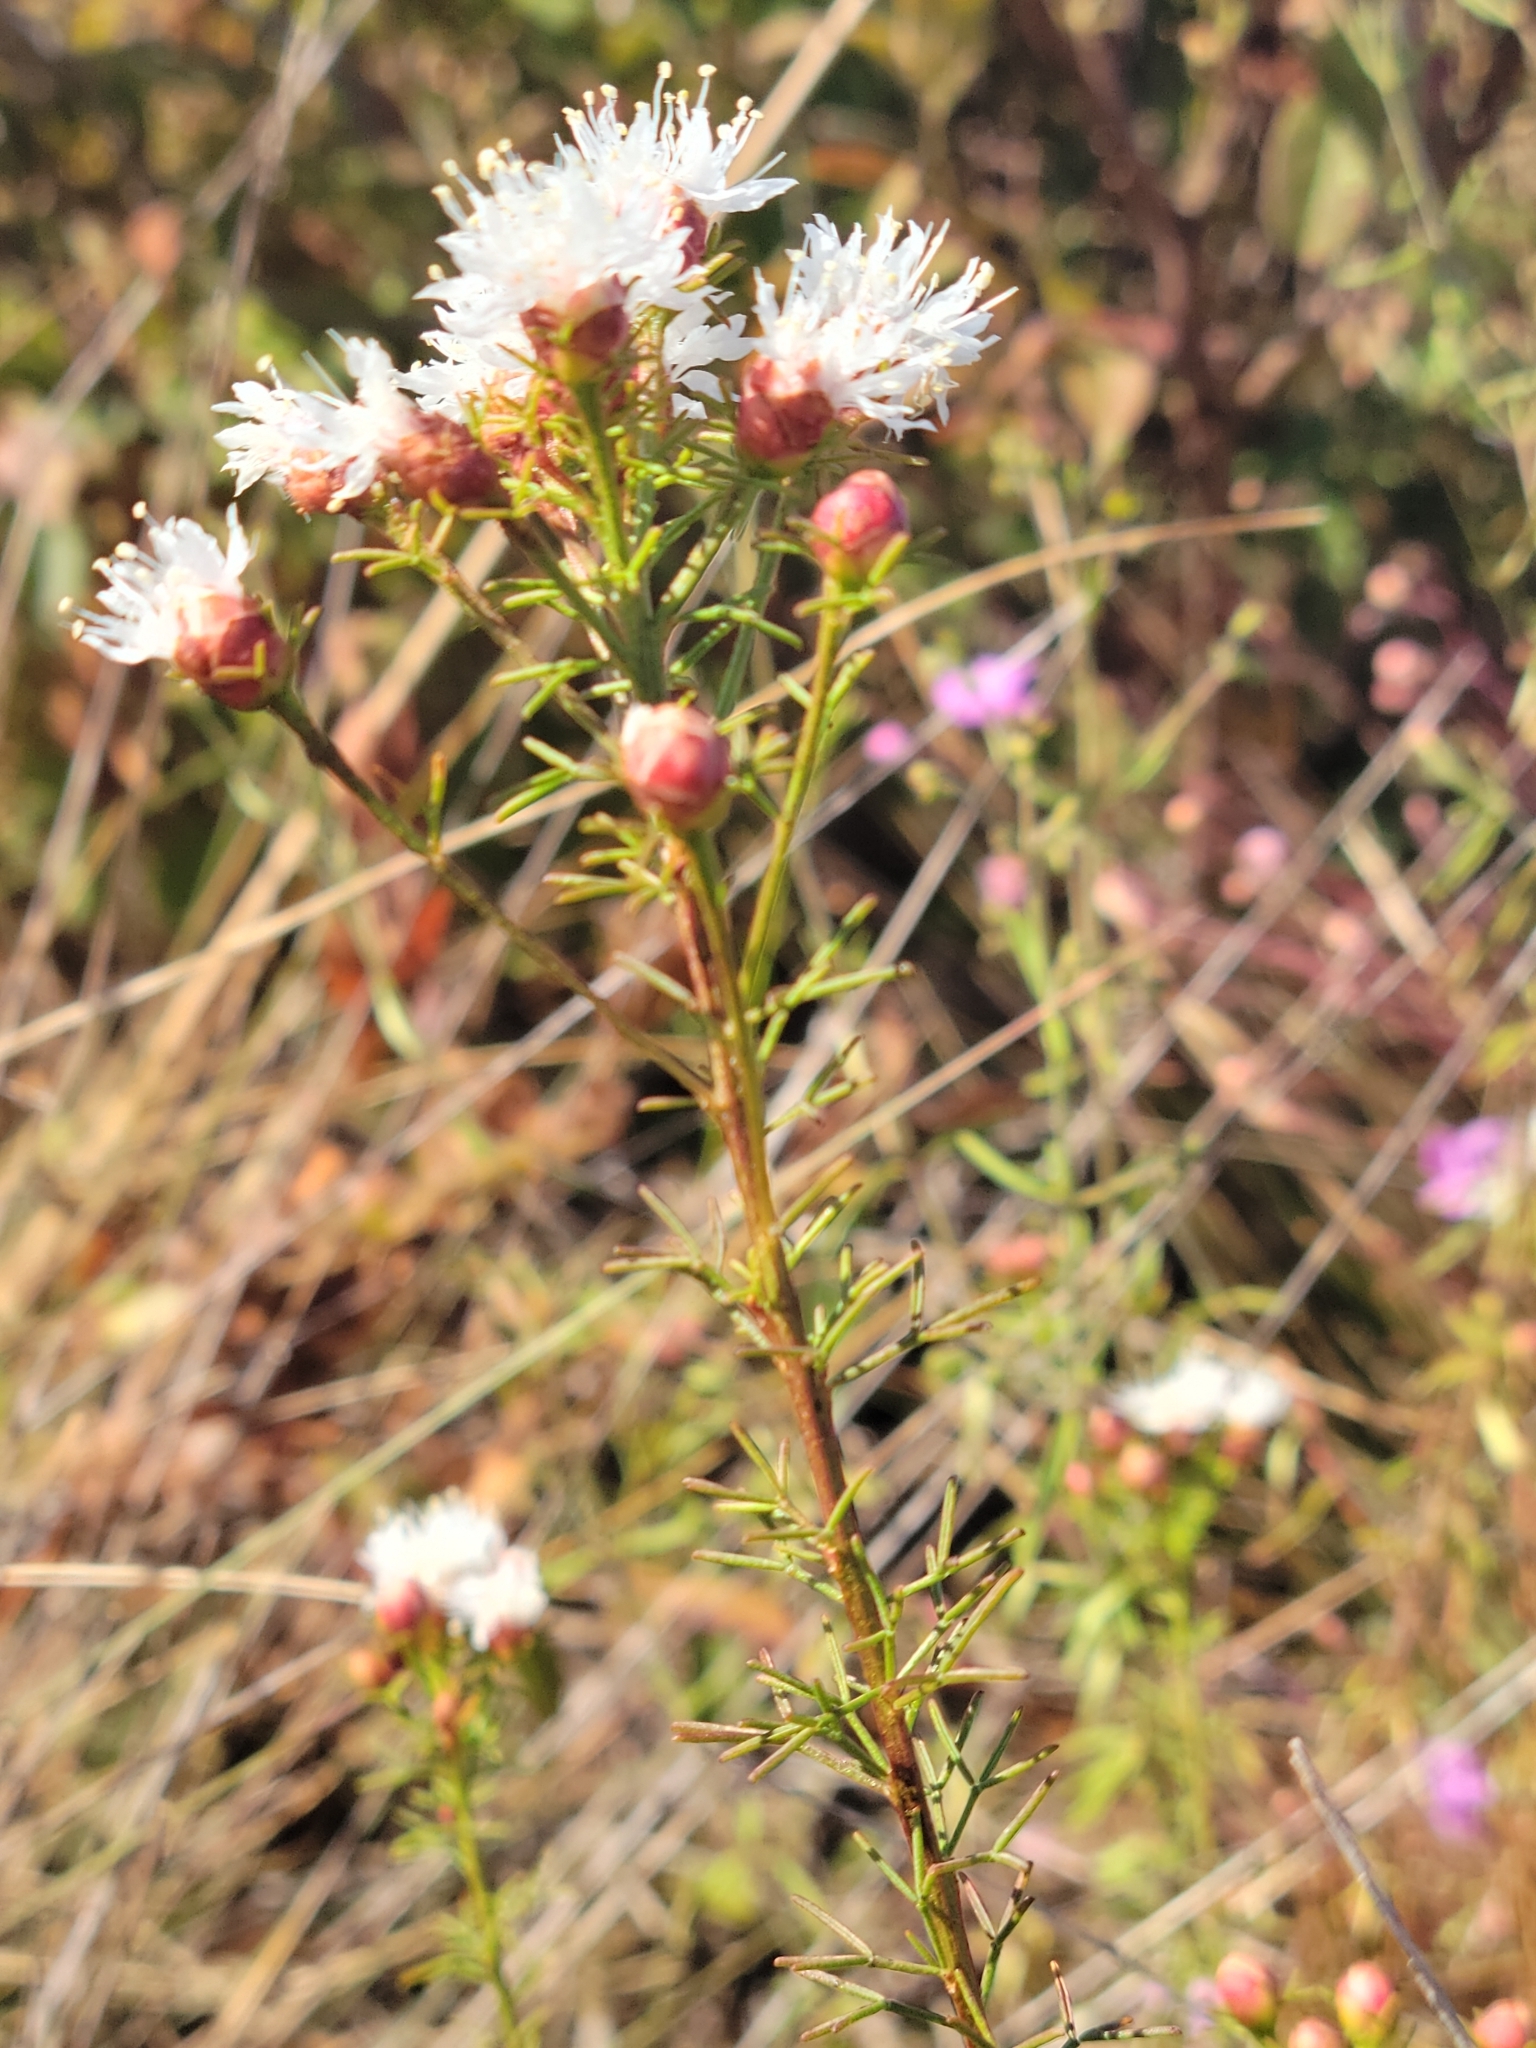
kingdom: Plantae
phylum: Tracheophyta
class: Magnoliopsida
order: Fabales
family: Fabaceae
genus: Dalea
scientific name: Dalea pinnata
